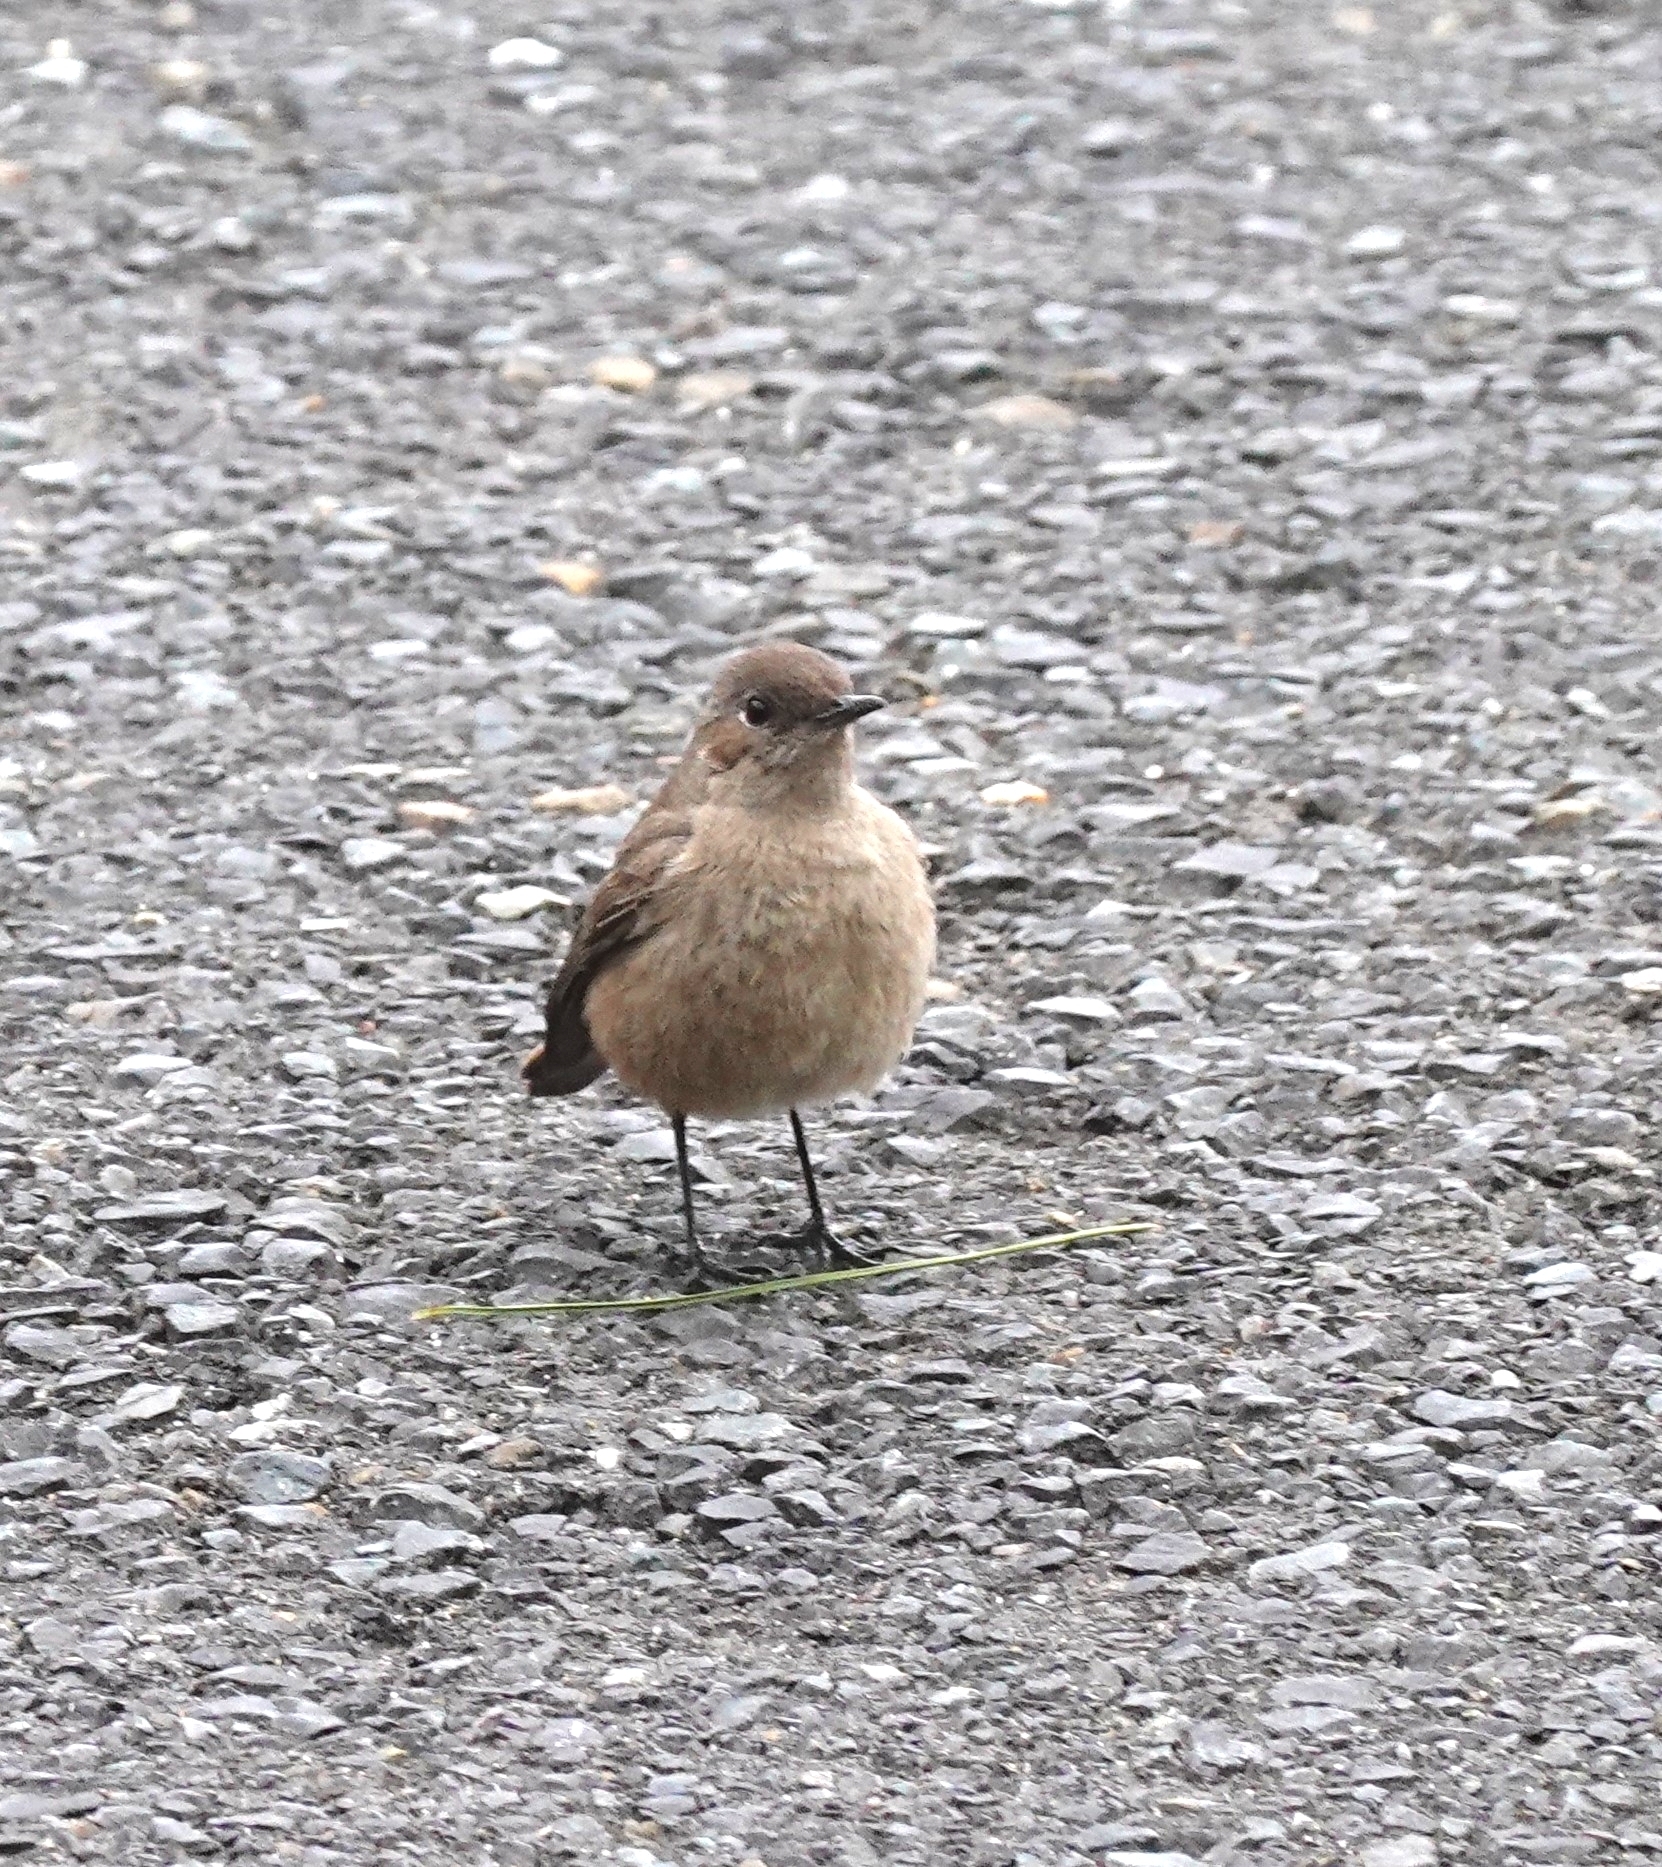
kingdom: Animalia
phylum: Chordata
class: Aves
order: Passeriformes
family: Muscicapidae
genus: Oenanthe
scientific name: Oenanthe familiaris
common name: Familiar chat
